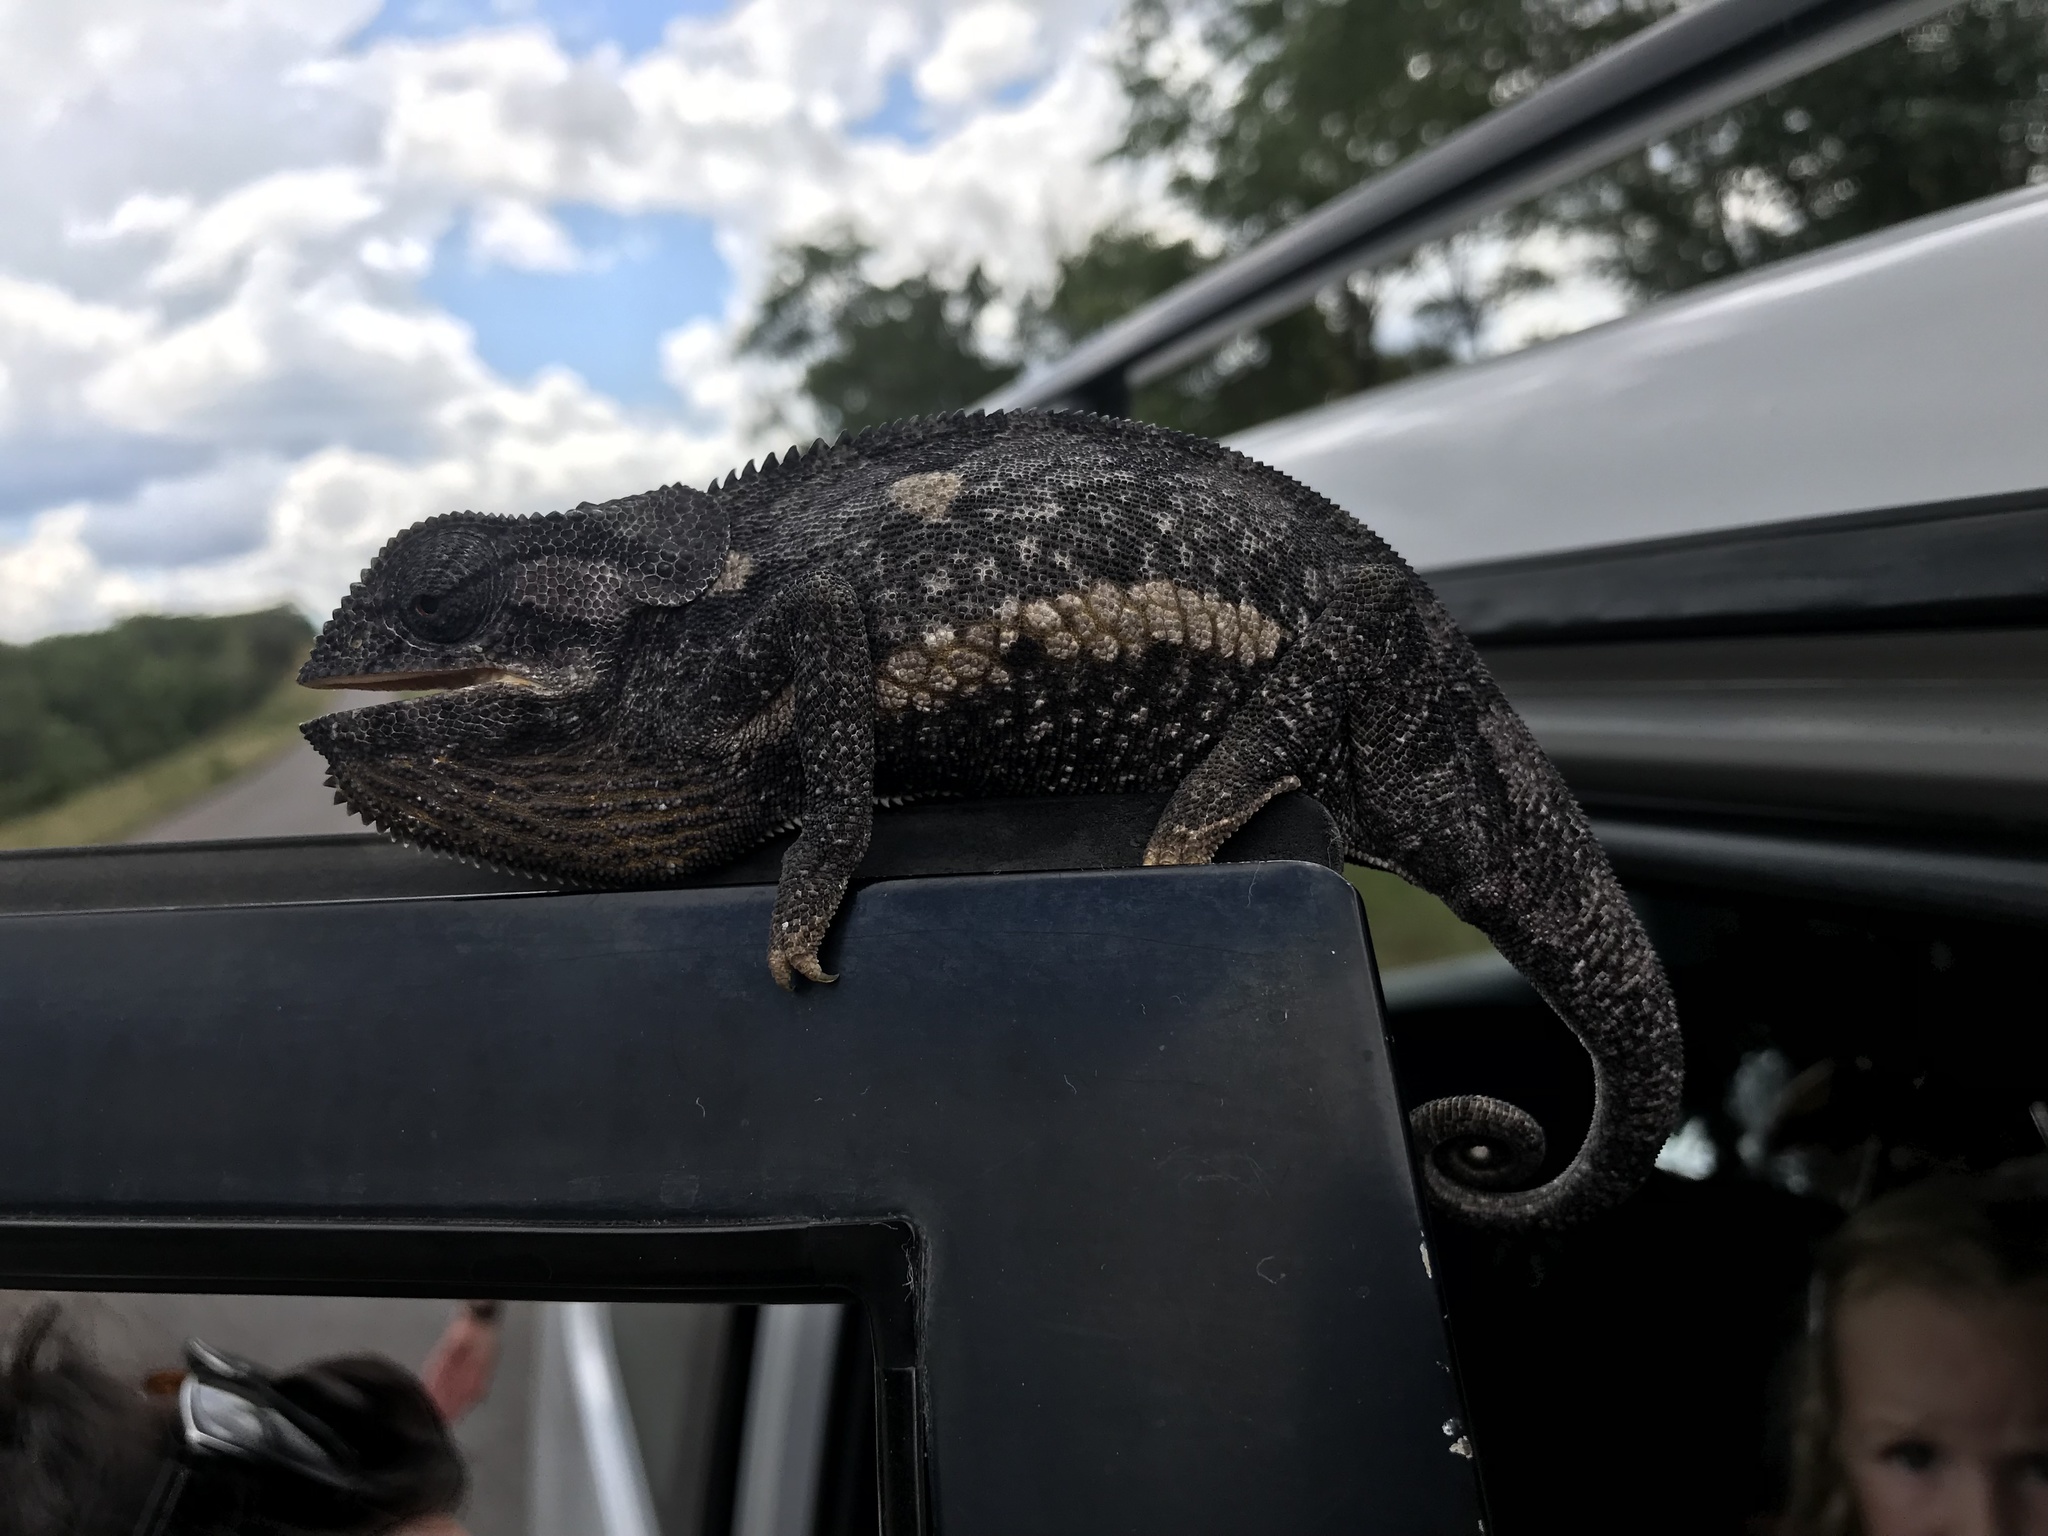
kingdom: Animalia
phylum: Chordata
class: Squamata
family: Chamaeleonidae
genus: Chamaeleo
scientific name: Chamaeleo dilepis
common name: Flapneck chameleon
